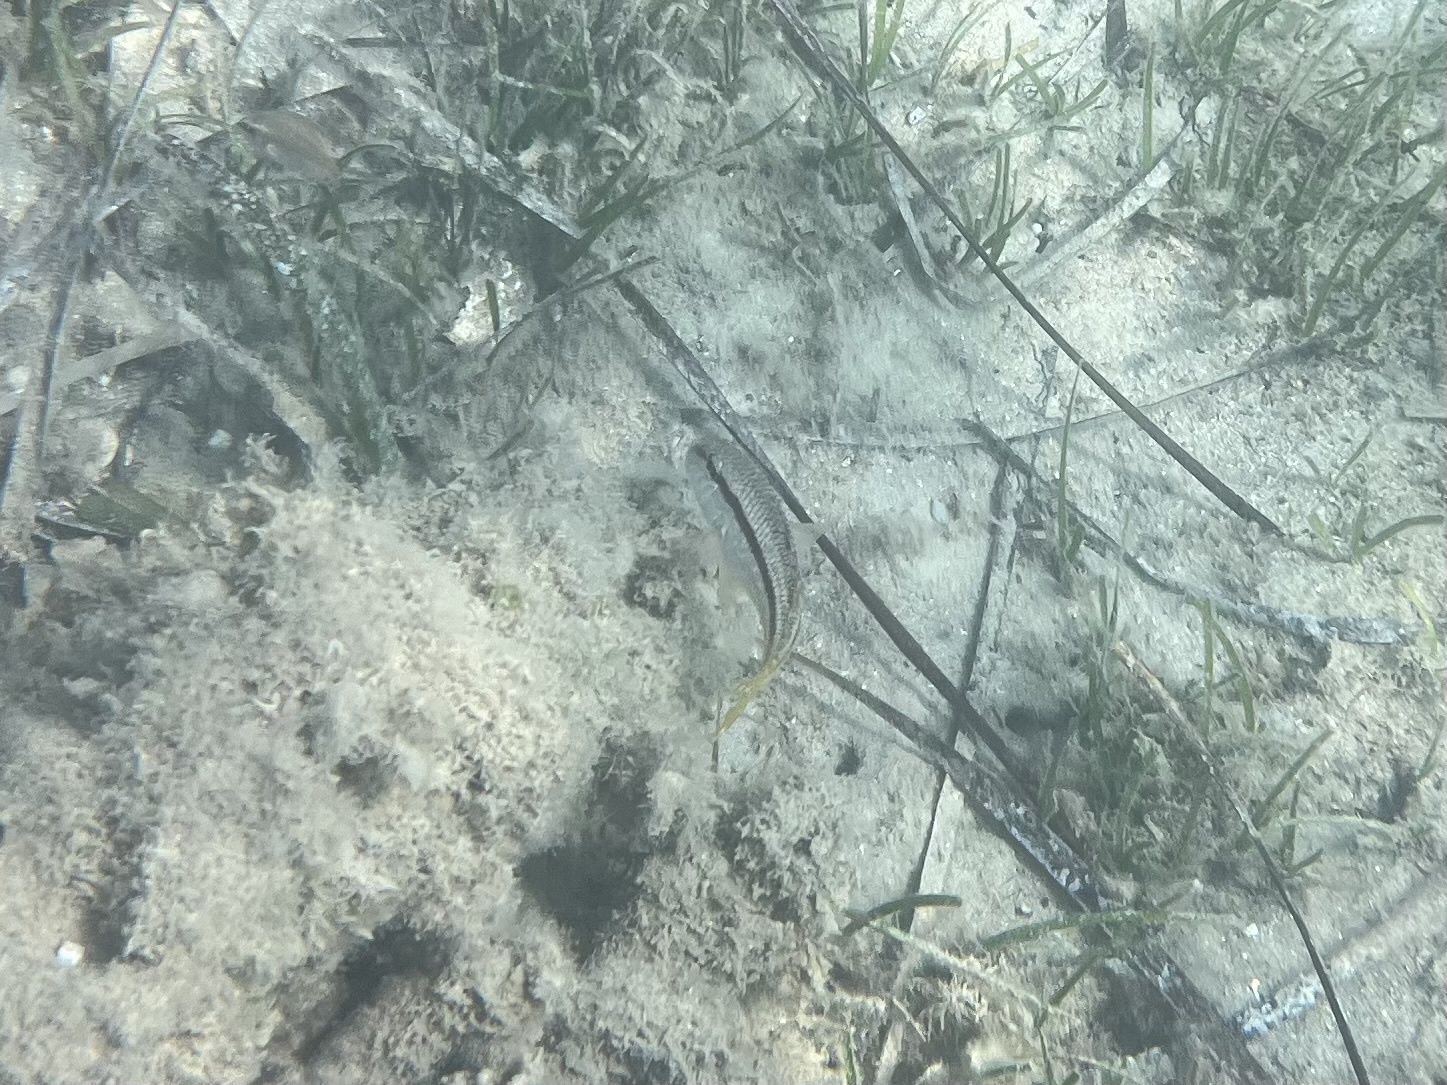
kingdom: Animalia
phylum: Chordata
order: Perciformes
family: Mullidae
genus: Mullus
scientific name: Mullus surmuletus
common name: Red mullet
